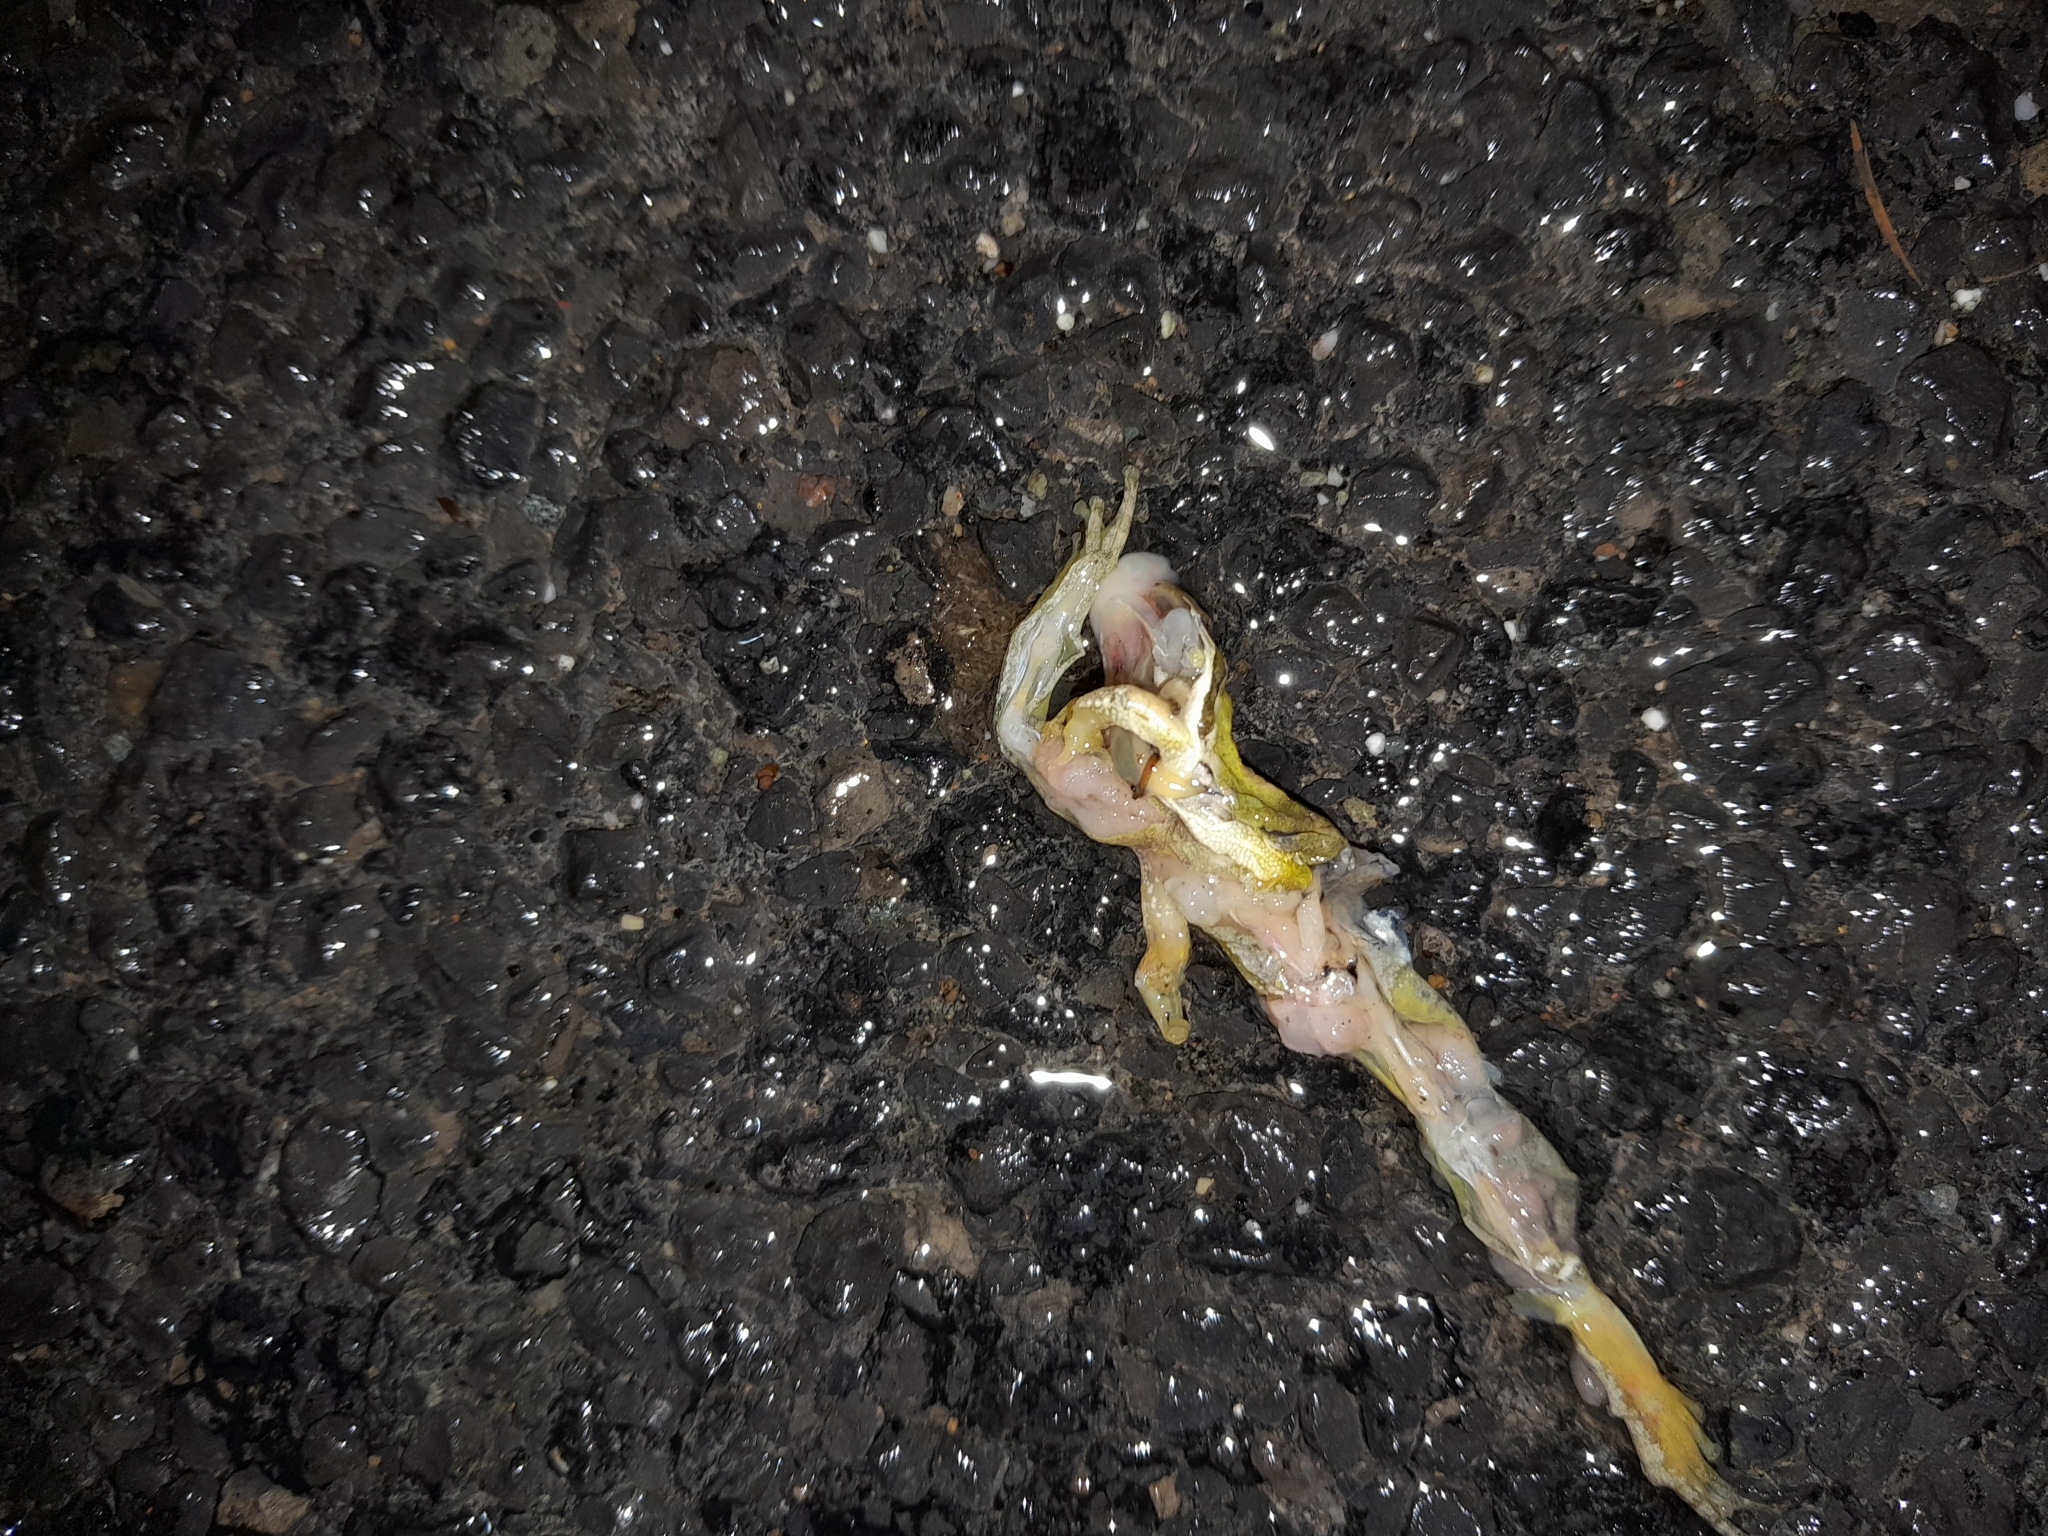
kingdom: Animalia
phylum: Chordata
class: Amphibia
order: Anura
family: Hylidae
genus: Pseudacris
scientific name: Pseudacris regilla
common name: Pacific chorus frog
